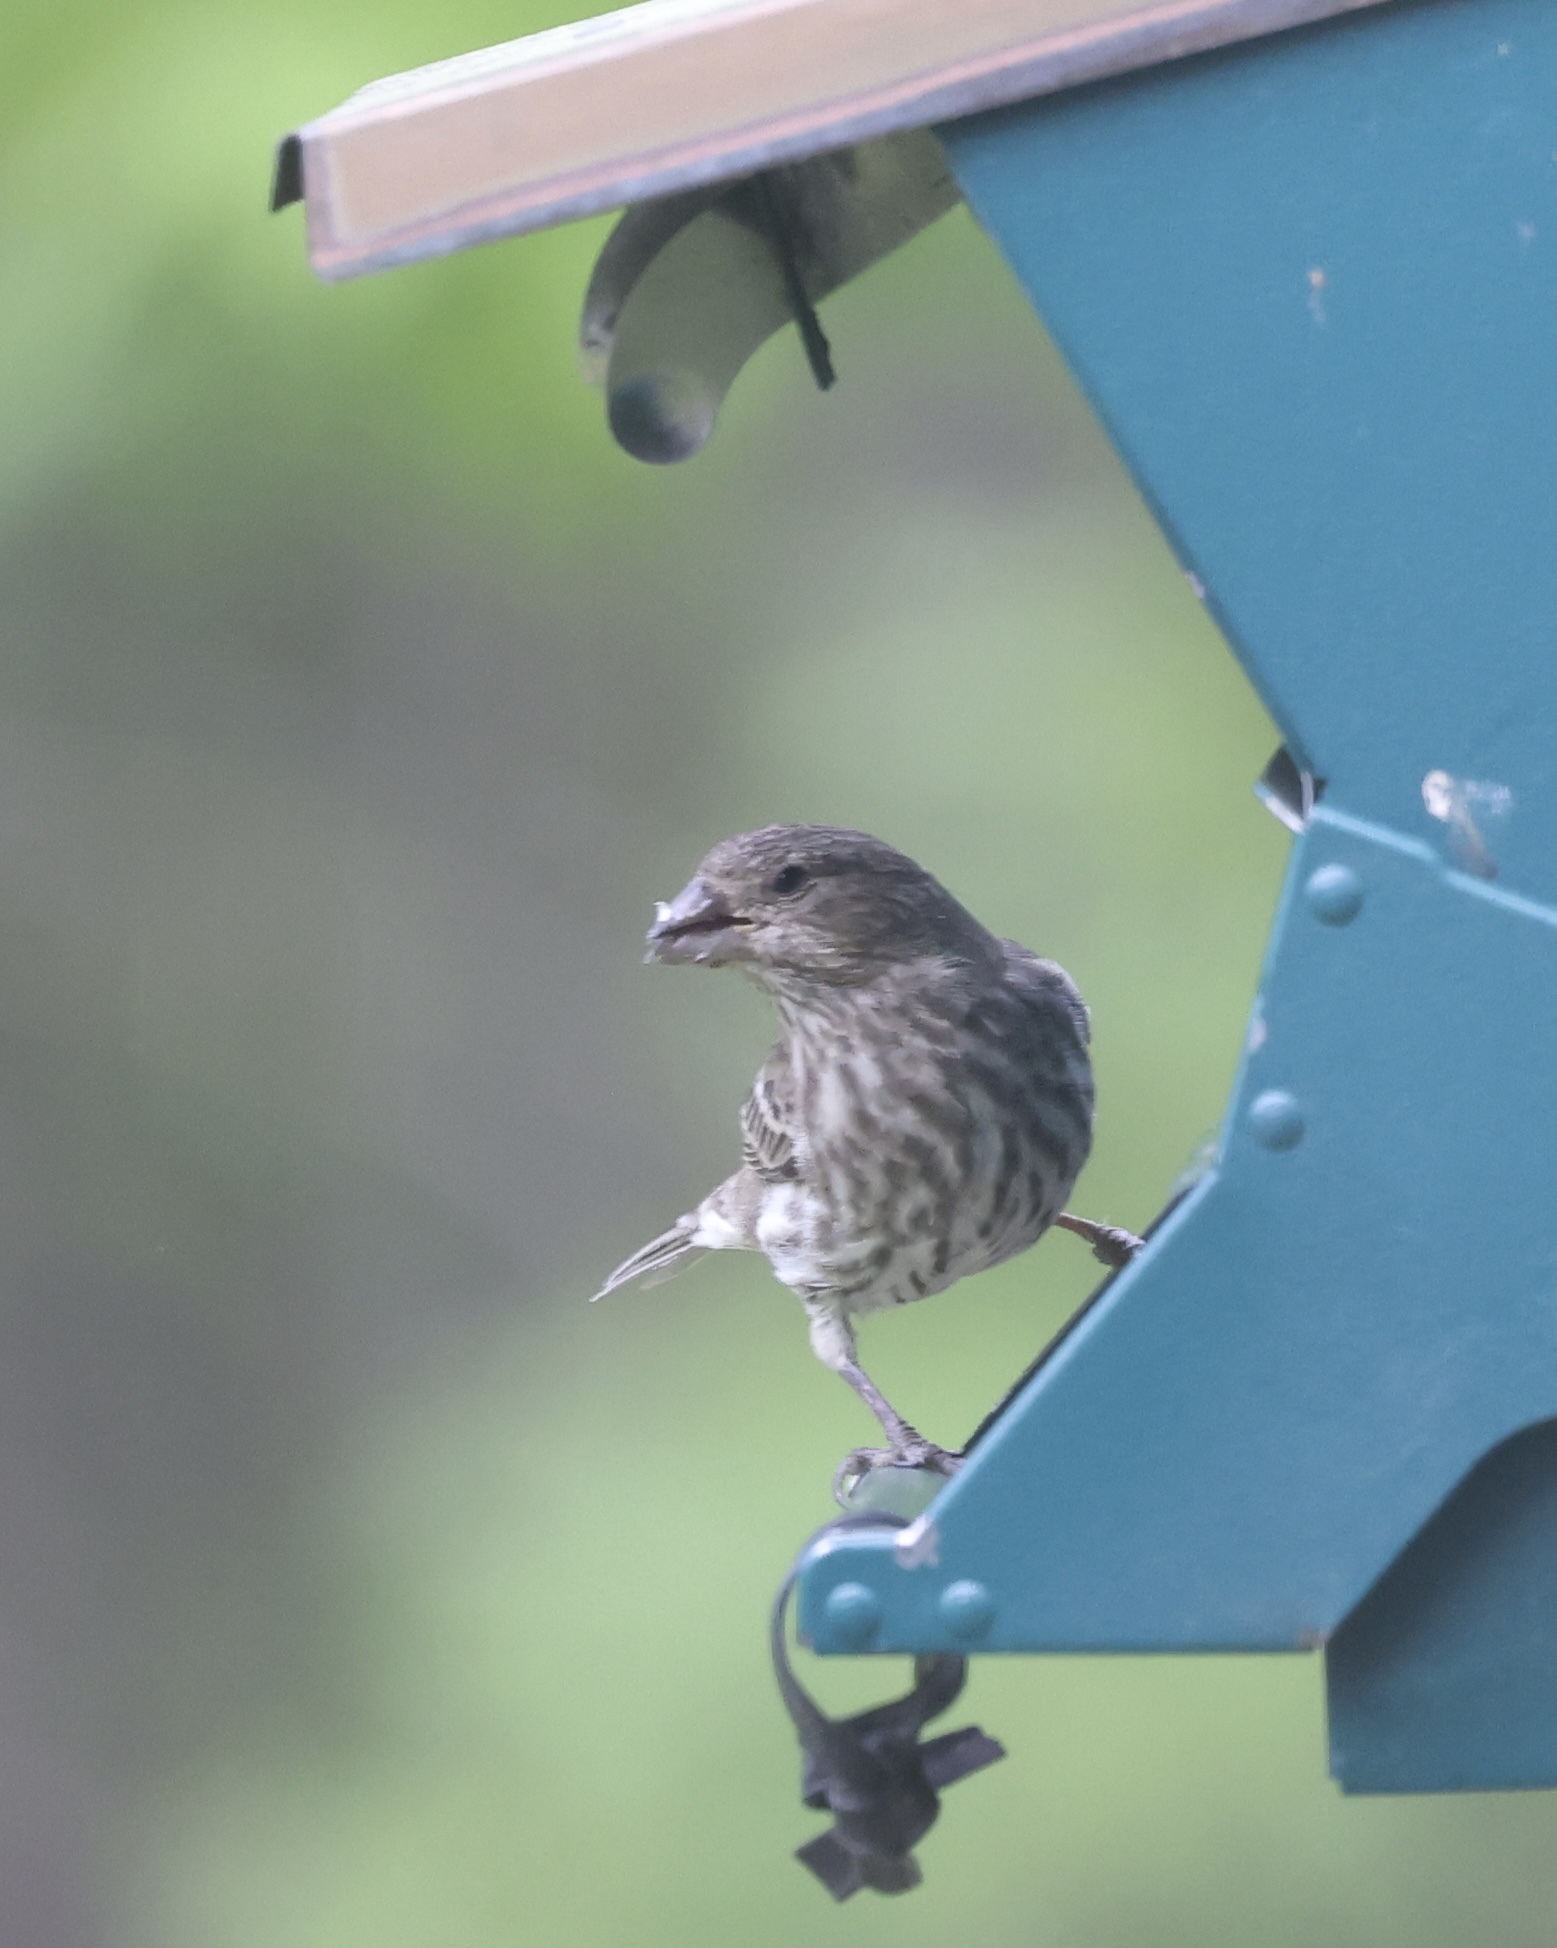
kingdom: Animalia
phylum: Chordata
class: Aves
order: Passeriformes
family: Fringillidae
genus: Haemorhous
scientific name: Haemorhous mexicanus
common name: House finch
